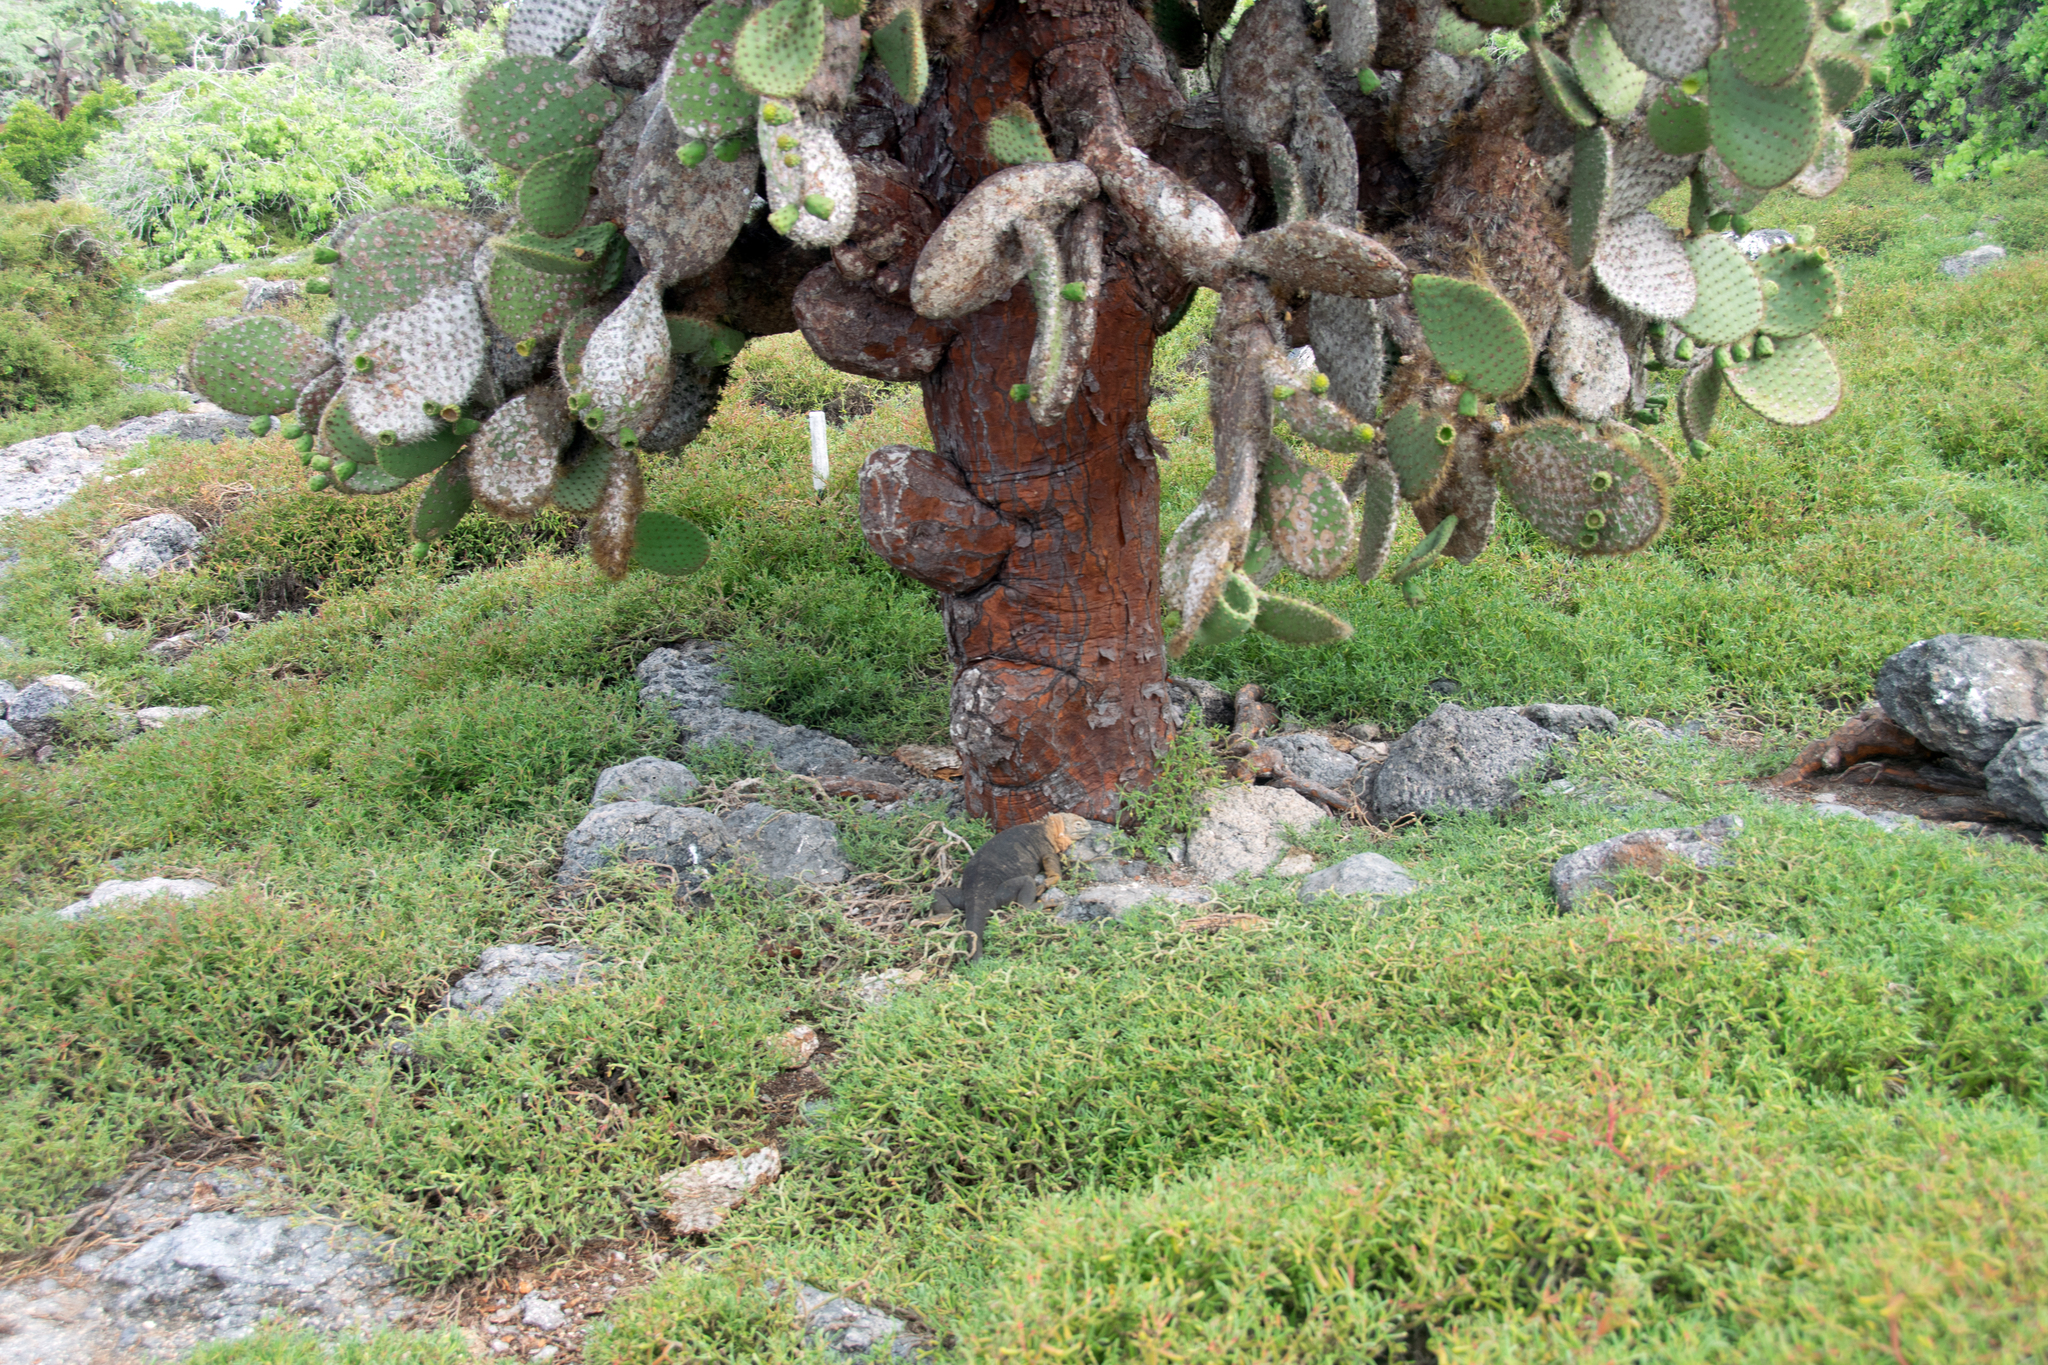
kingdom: Plantae
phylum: Tracheophyta
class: Magnoliopsida
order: Caryophyllales
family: Cactaceae
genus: Opuntia
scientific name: Opuntia galapageia
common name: Galápagos prickly pear
